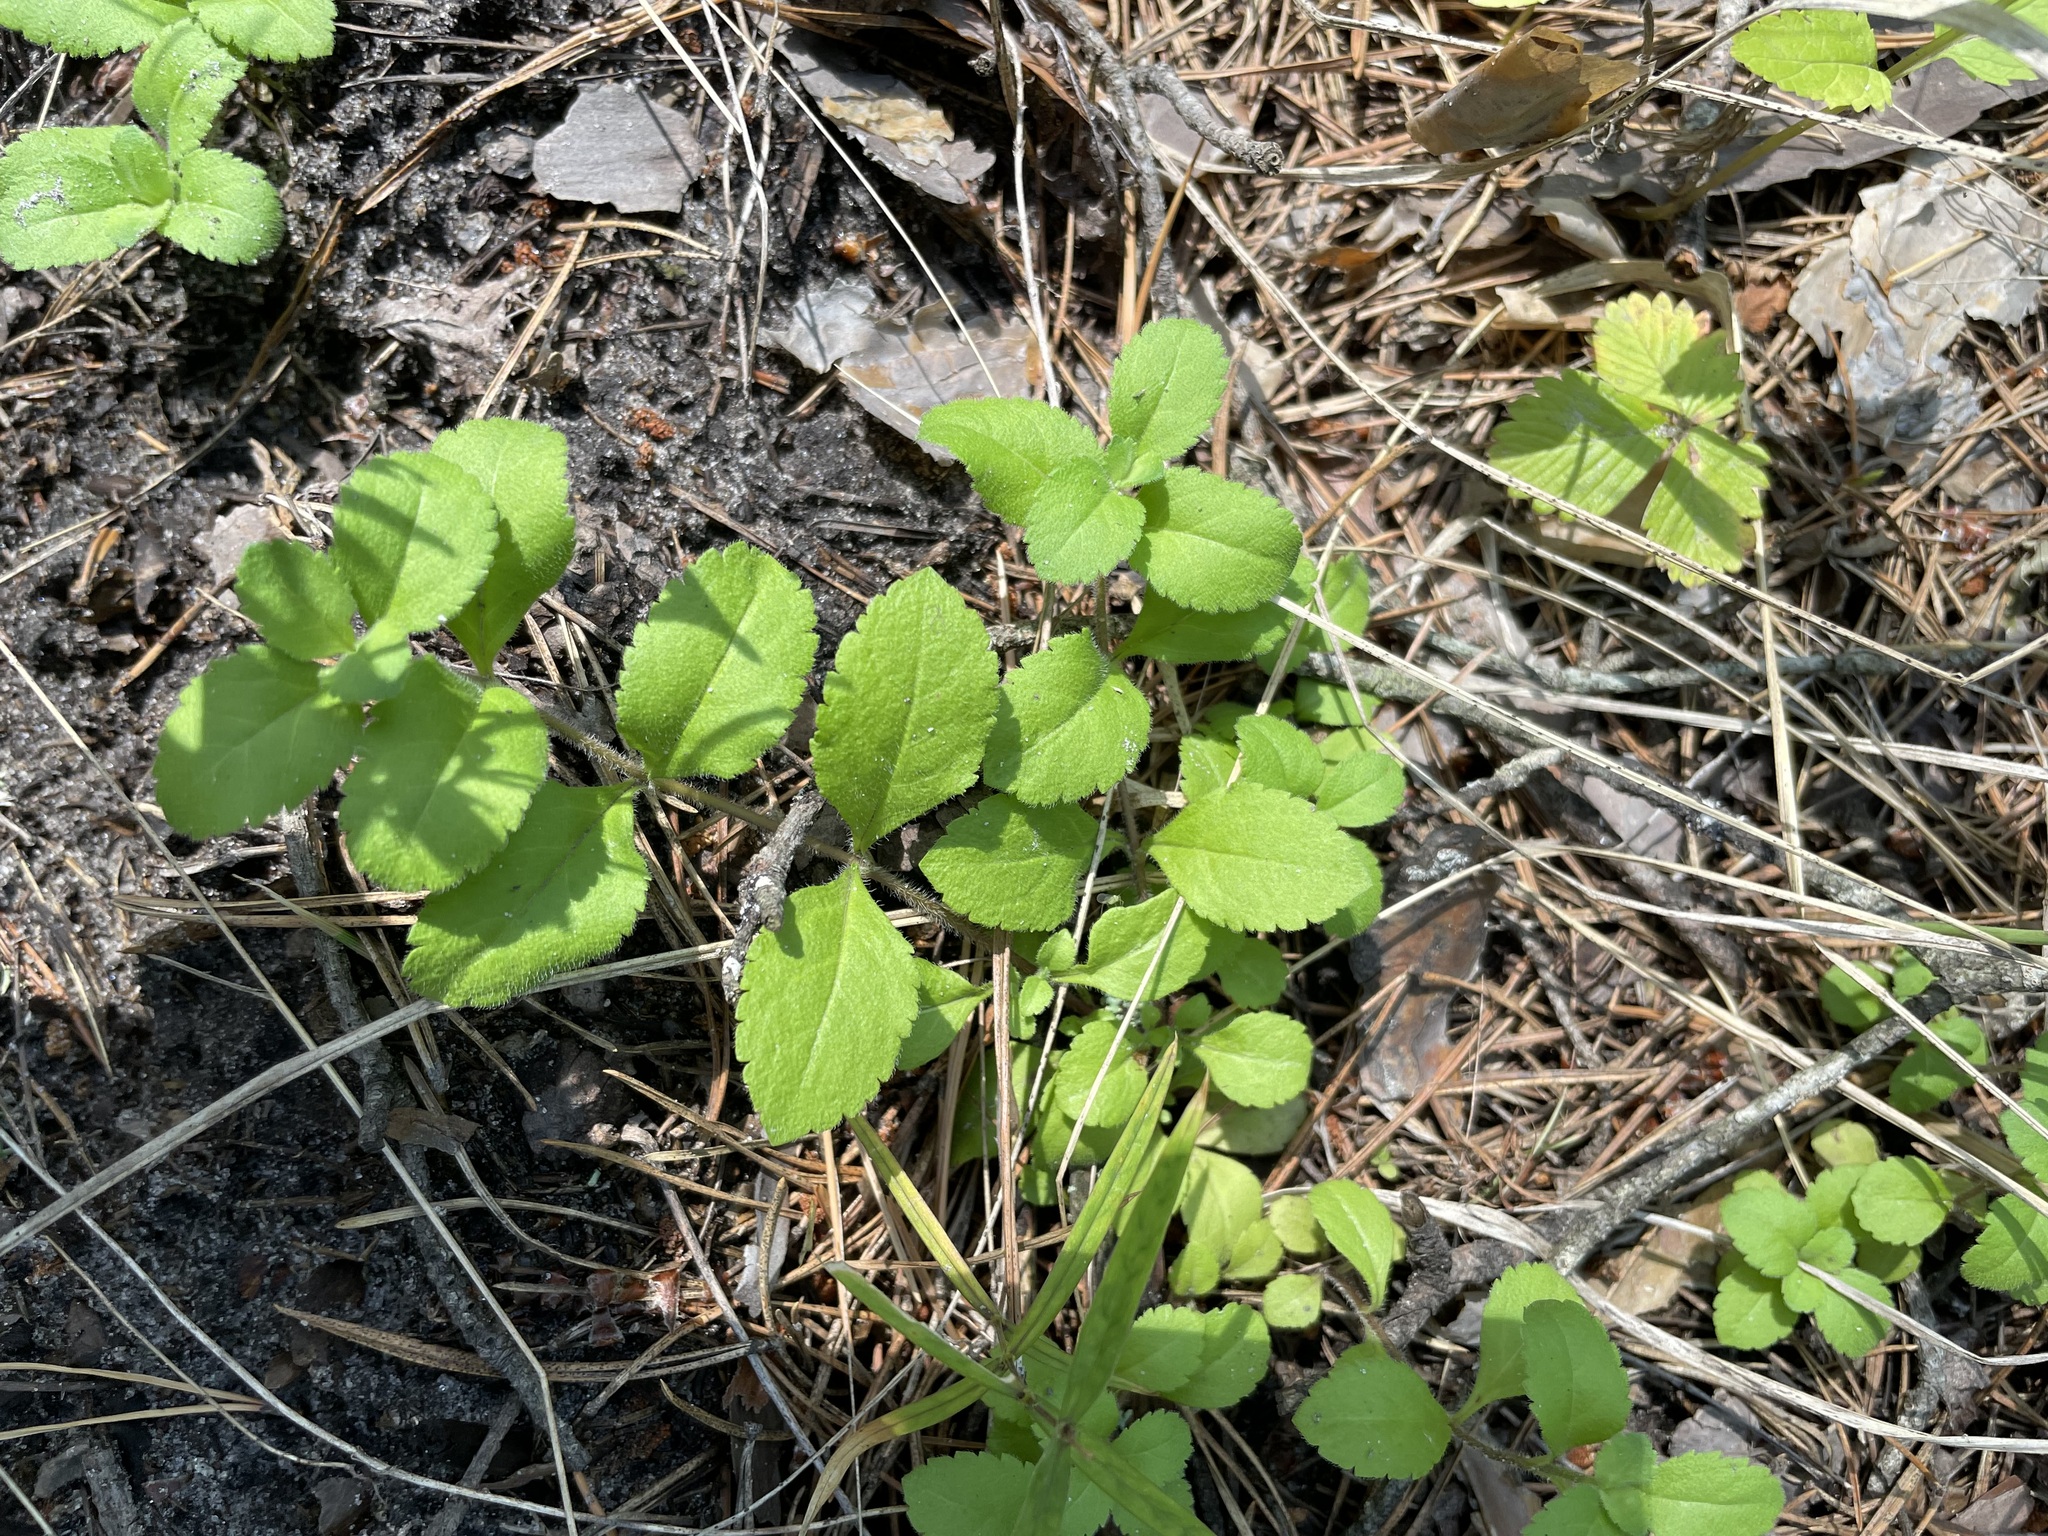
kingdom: Plantae
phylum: Tracheophyta
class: Magnoliopsida
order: Lamiales
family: Plantaginaceae
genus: Veronica
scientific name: Veronica officinalis
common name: Common speedwell
